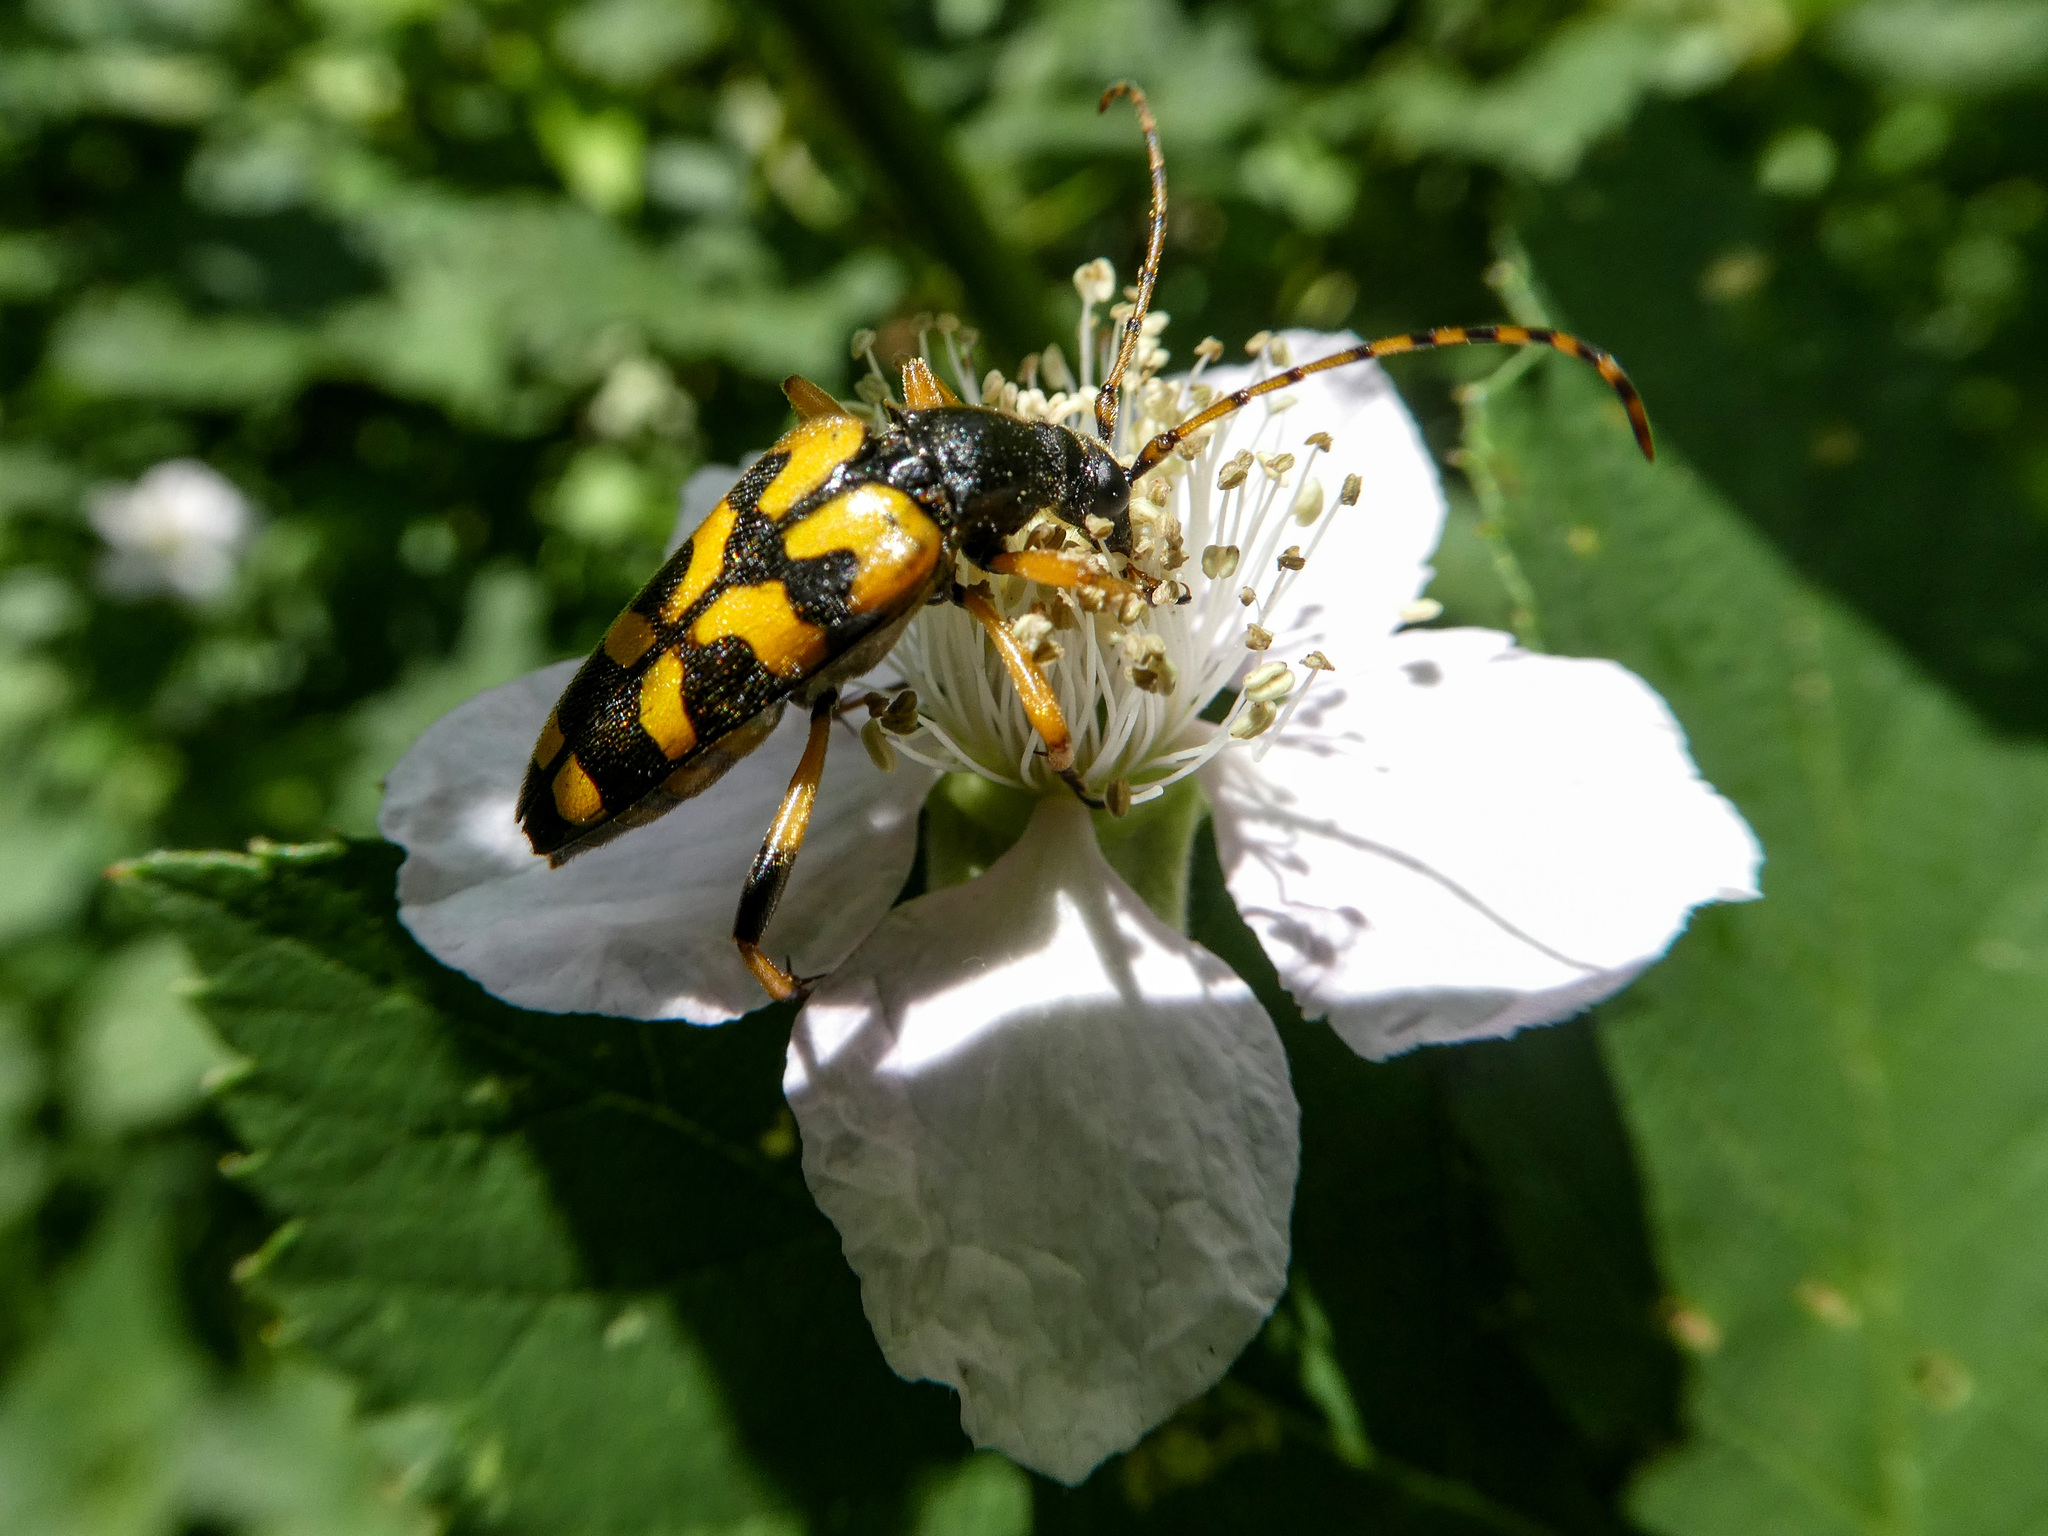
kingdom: Animalia
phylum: Arthropoda
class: Insecta
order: Coleoptera
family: Cerambycidae
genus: Rutpela
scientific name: Rutpela maculata
